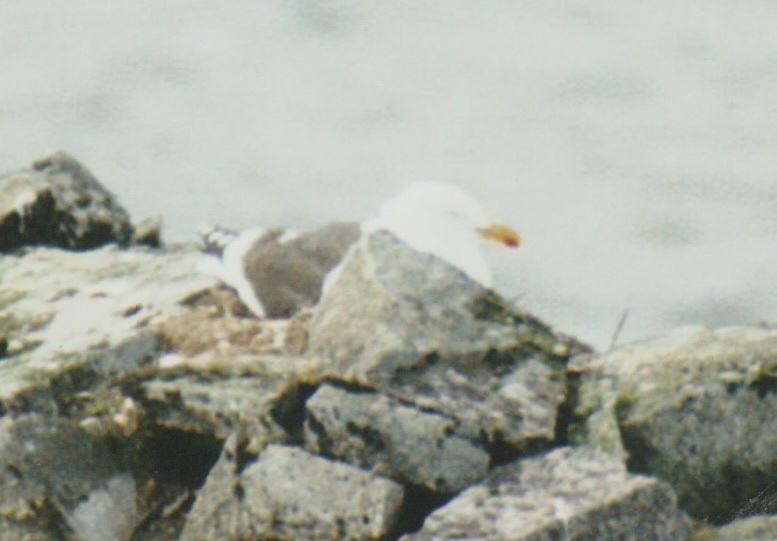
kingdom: Animalia
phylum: Chordata
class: Aves
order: Charadriiformes
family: Laridae
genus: Larus
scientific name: Larus dominicanus
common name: Kelp gull
